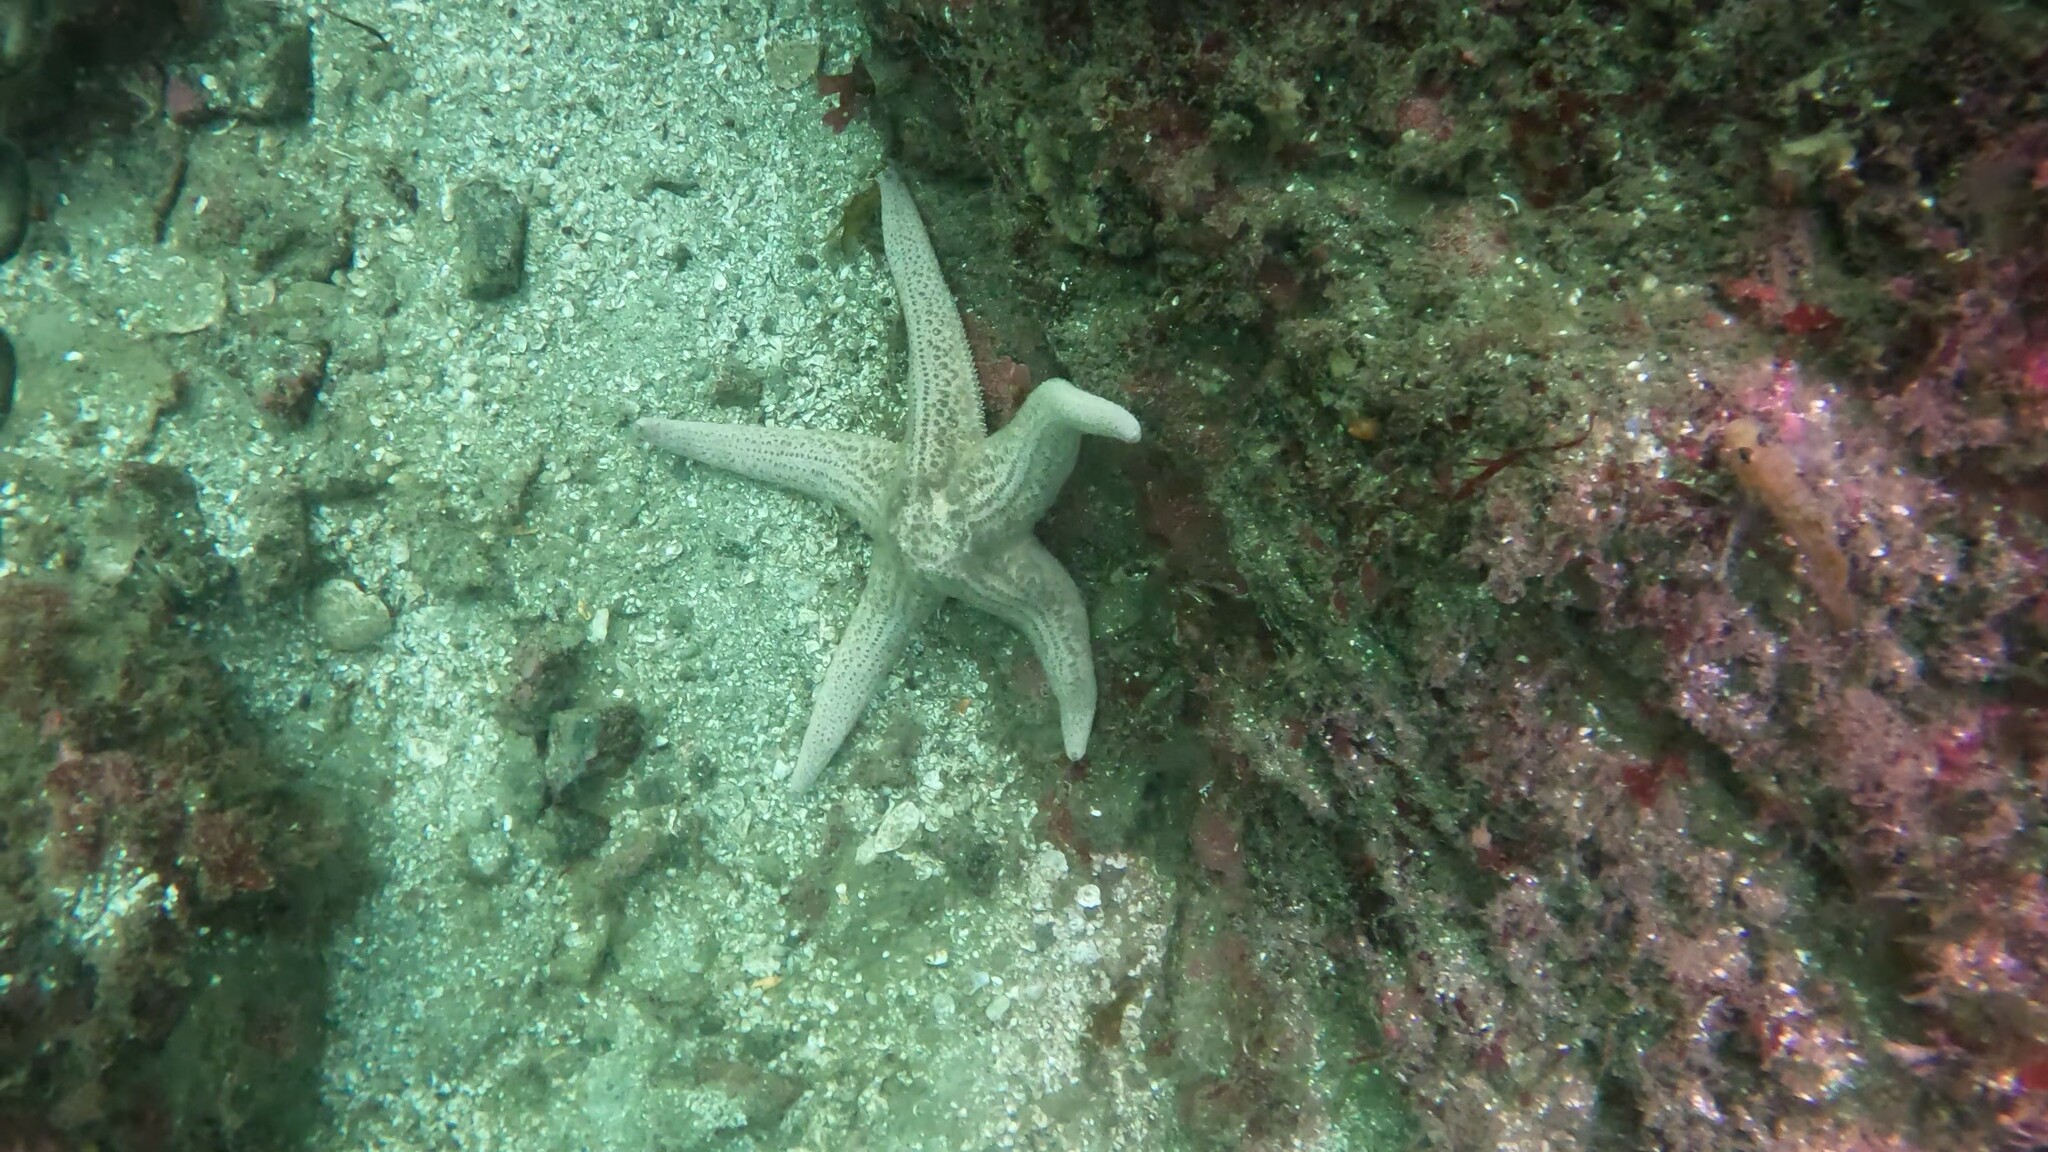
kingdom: Animalia
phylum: Echinodermata
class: Asteroidea
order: Forcipulatida
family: Asteriidae
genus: Pisaster
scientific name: Pisaster brevispinus
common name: Pink stars
